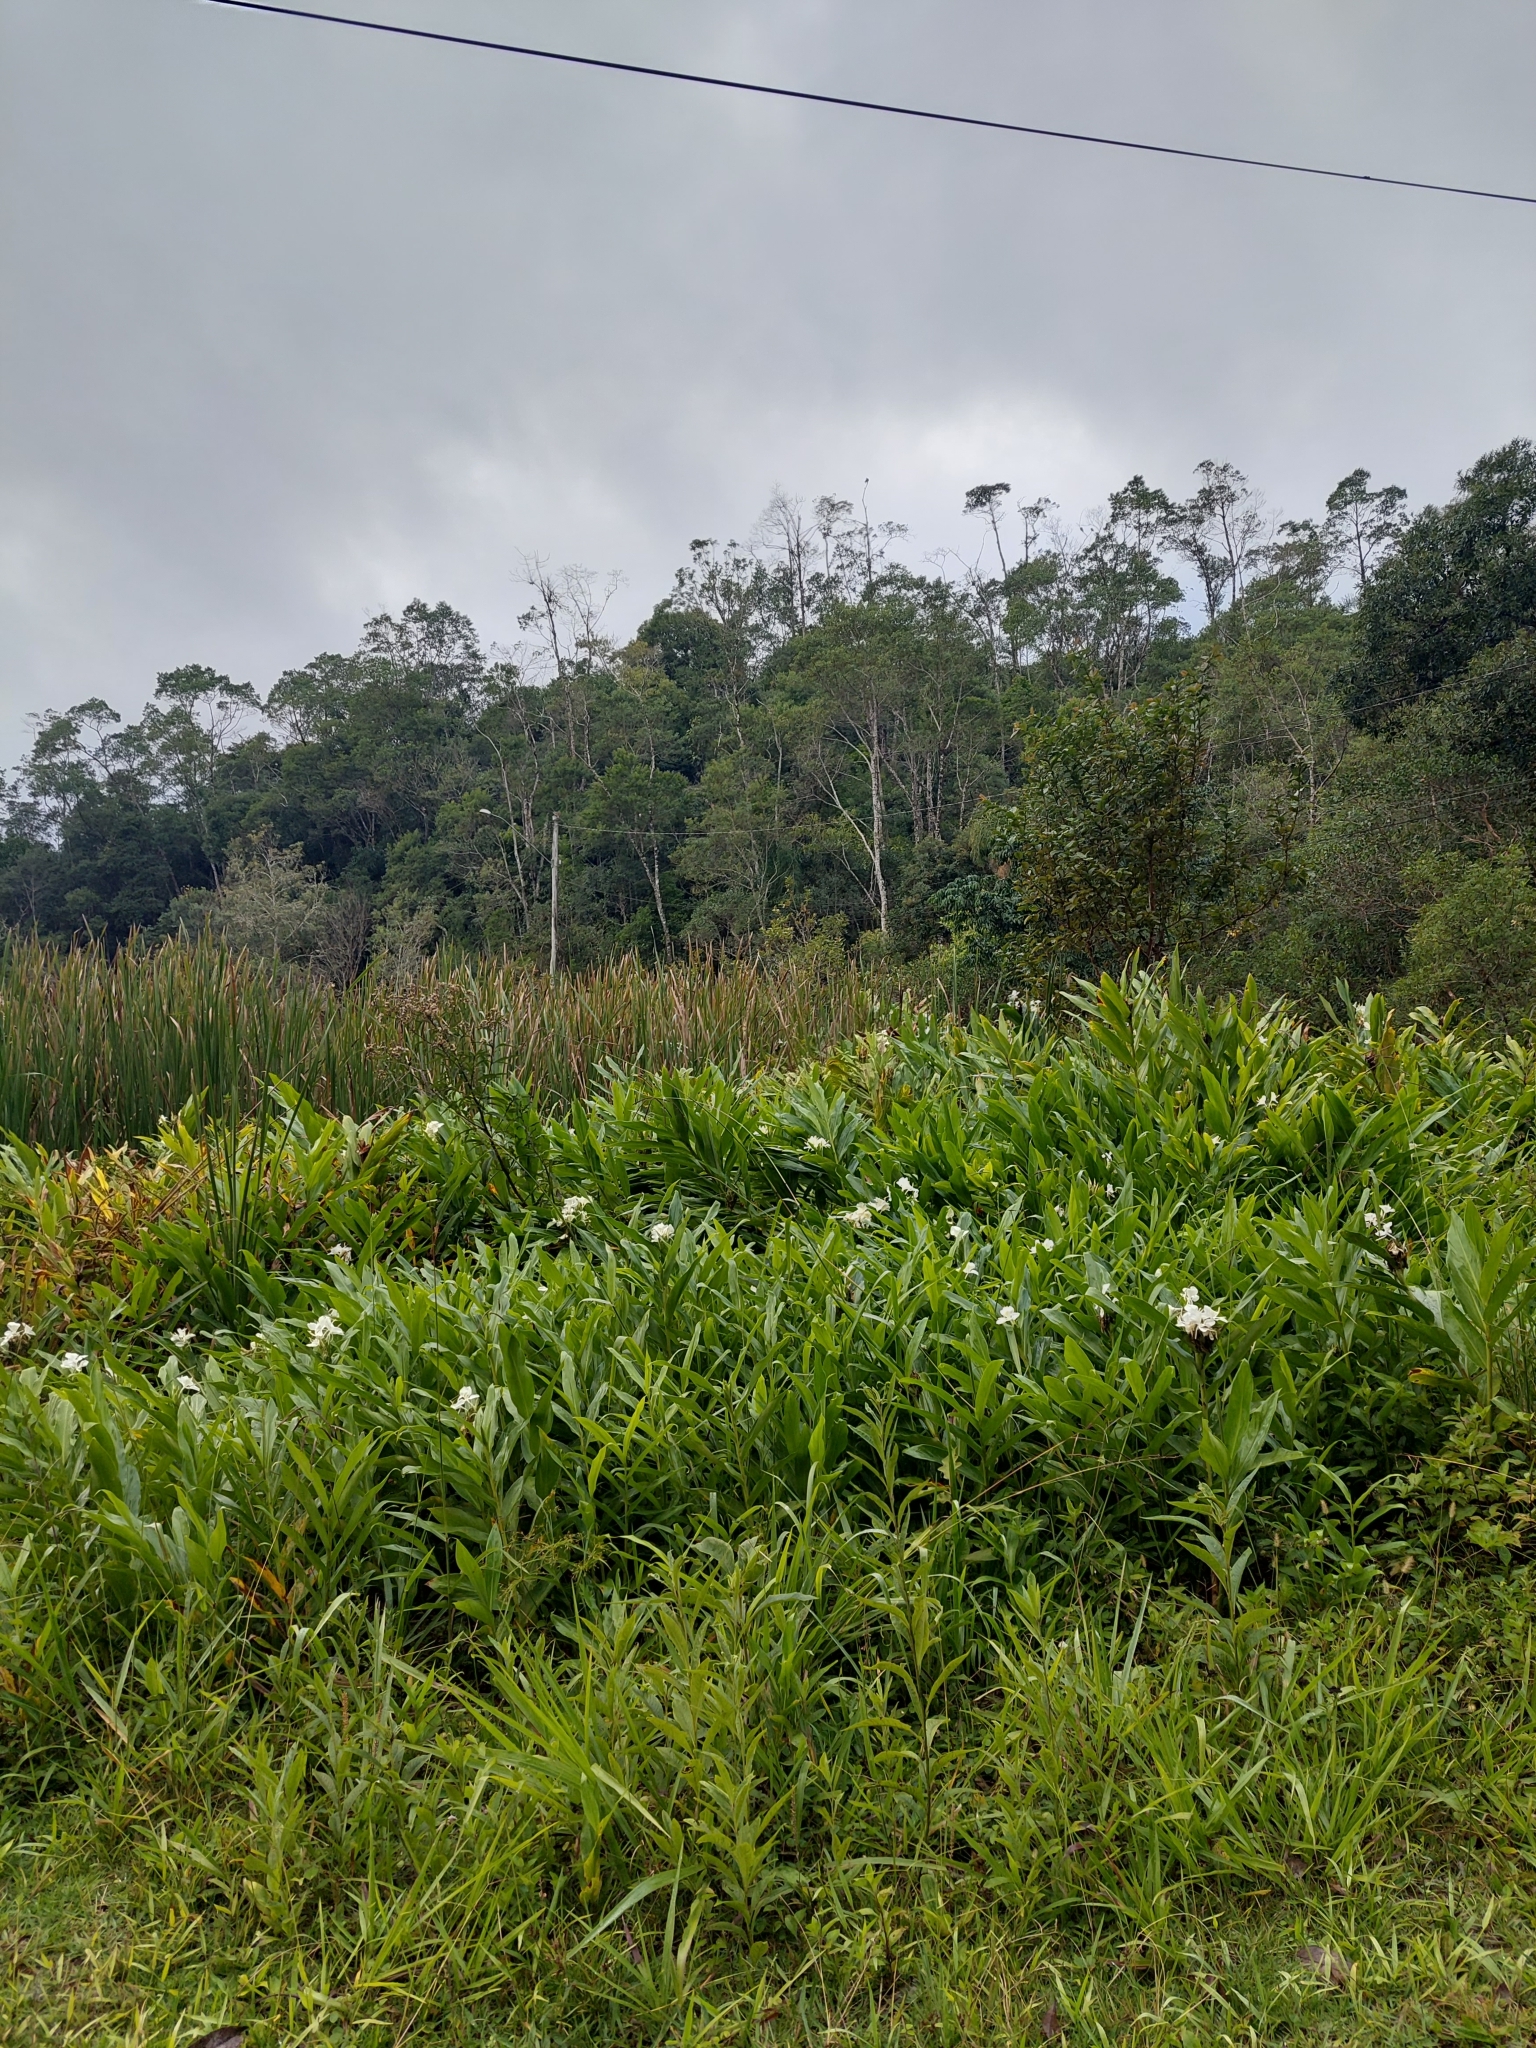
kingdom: Plantae
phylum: Tracheophyta
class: Liliopsida
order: Zingiberales
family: Zingiberaceae
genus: Hedychium
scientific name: Hedychium coronarium
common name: White garland-lily
